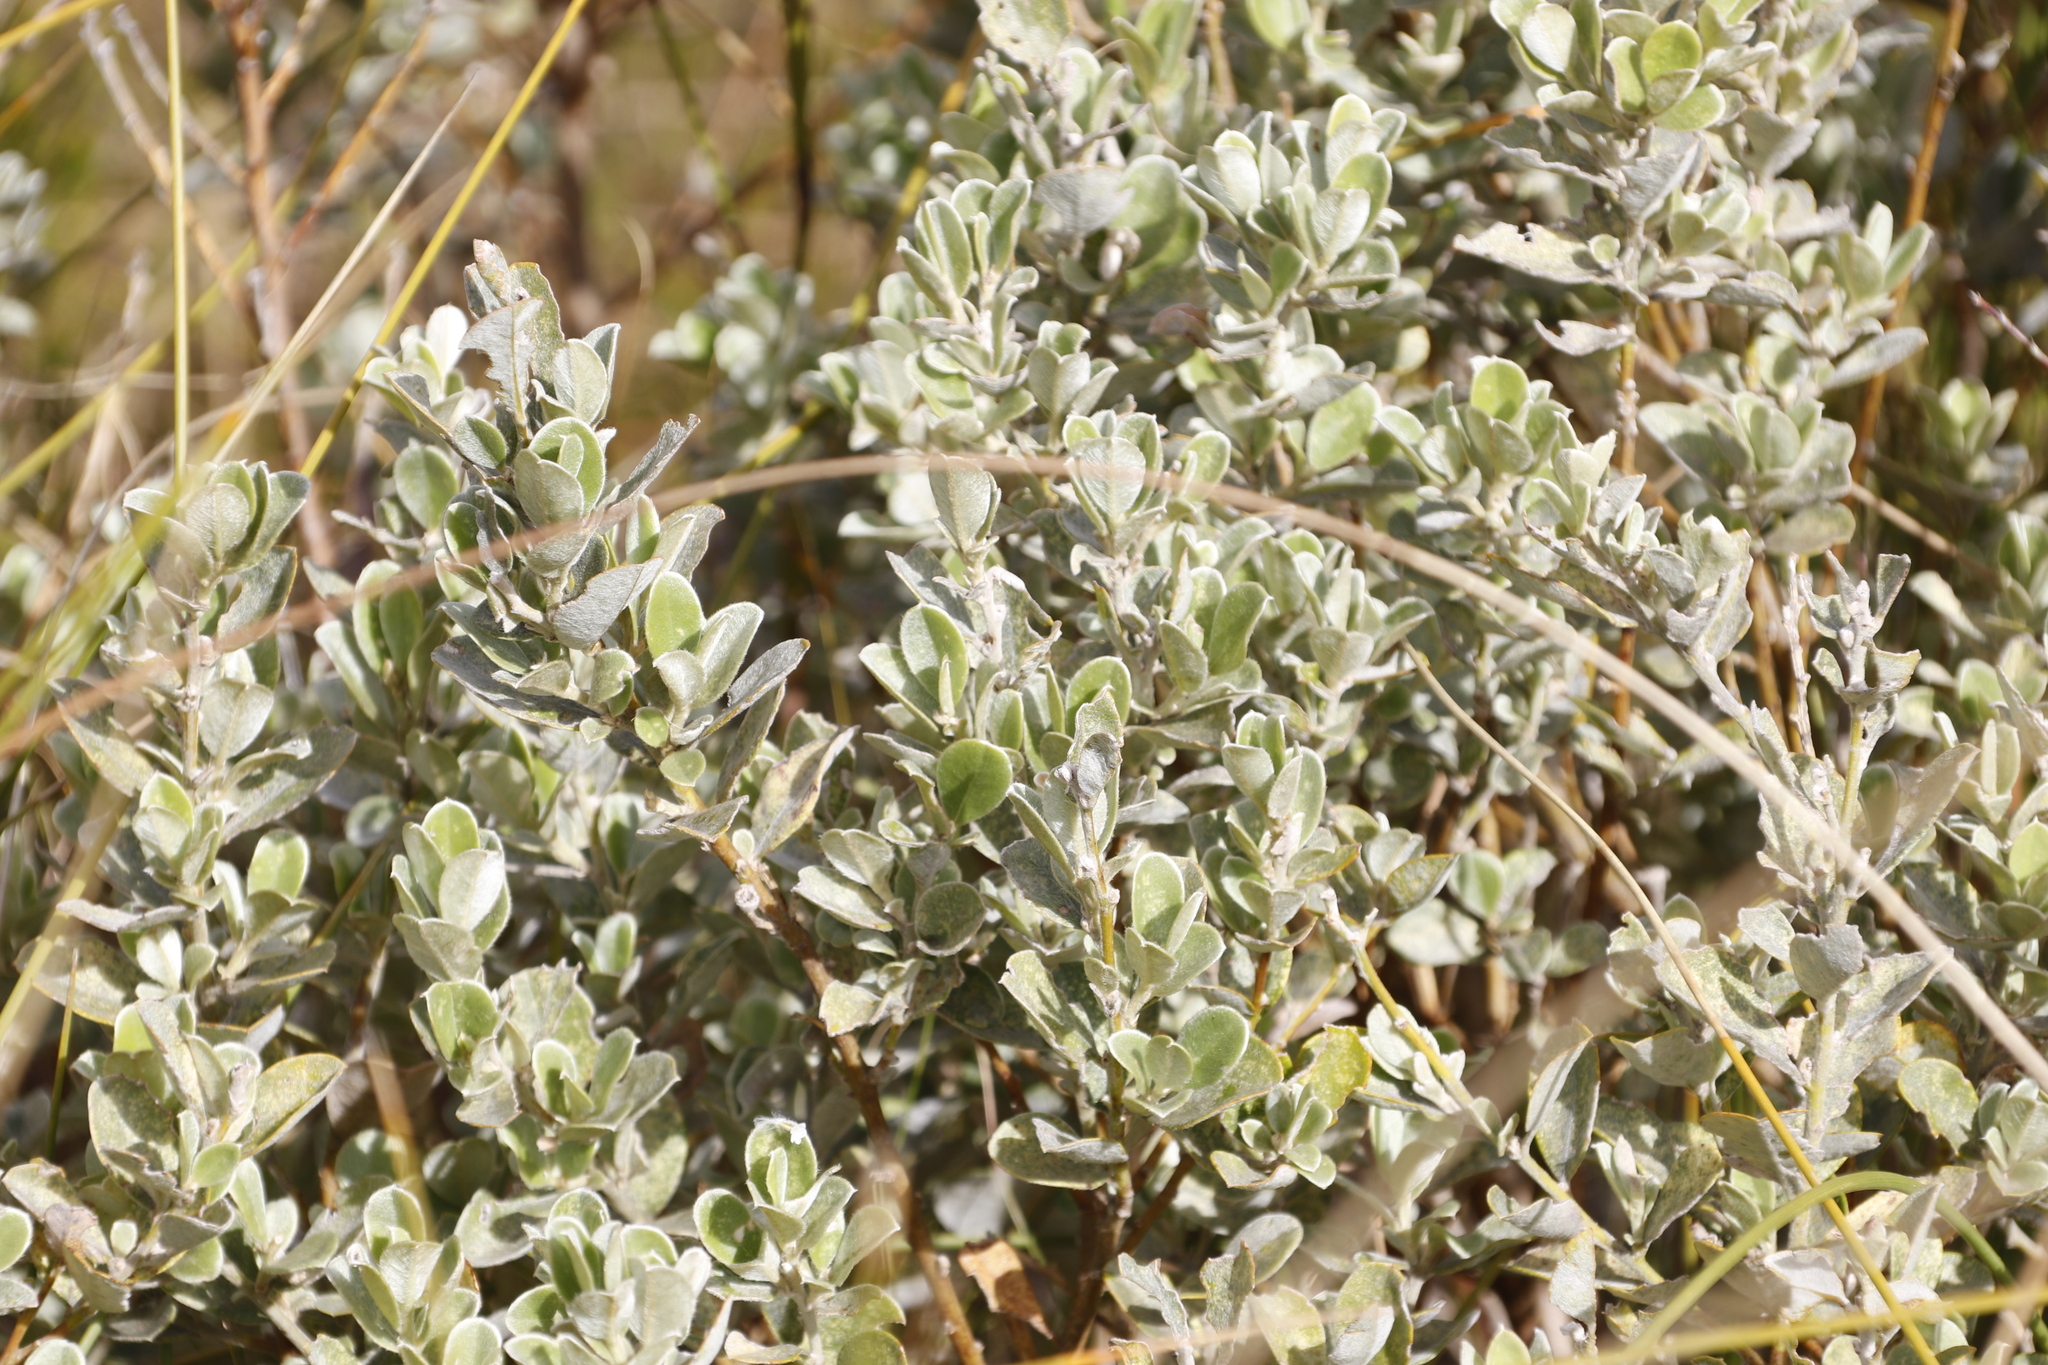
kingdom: Plantae
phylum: Tracheophyta
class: Magnoliopsida
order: Fabales
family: Fabaceae
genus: Podalyria
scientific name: Podalyria hirsuta
